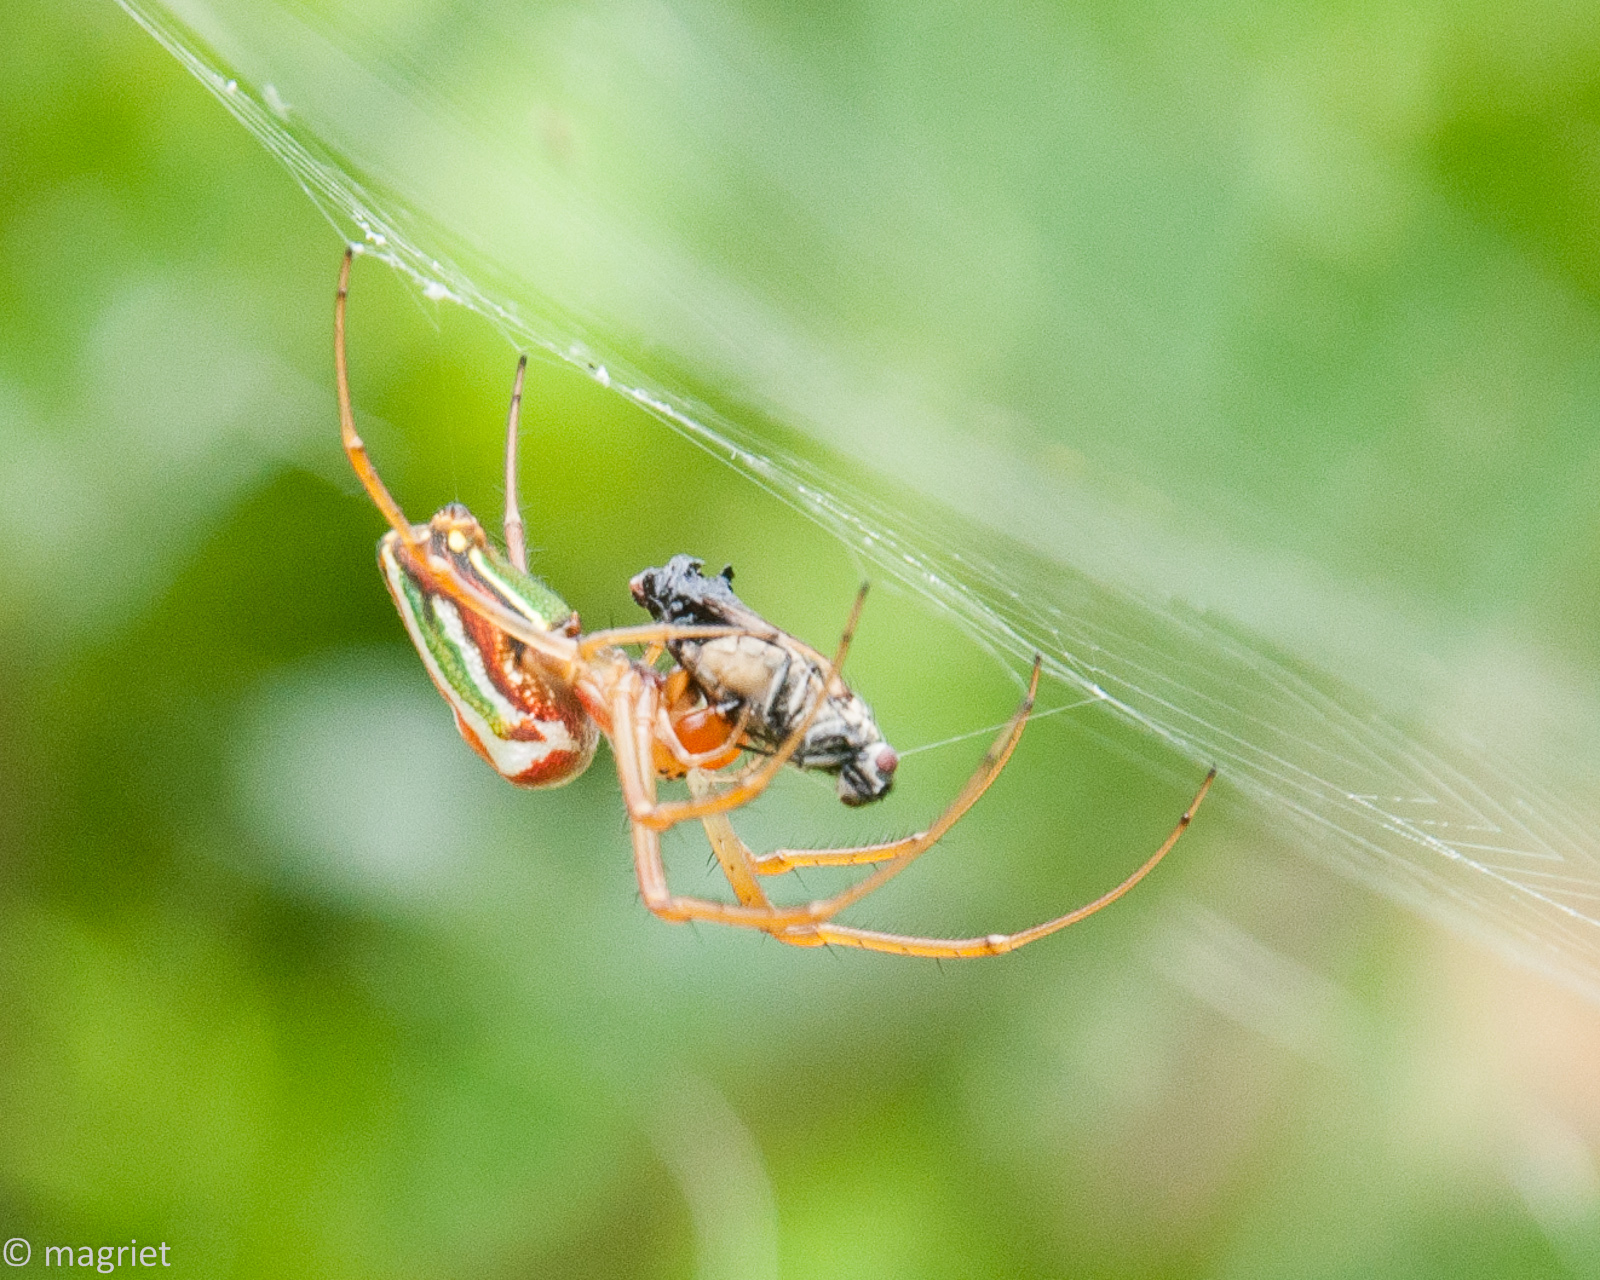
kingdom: Animalia
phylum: Arthropoda
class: Arachnida
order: Araneae
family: Tetragnathidae
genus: Leucauge
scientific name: Leucauge festiva
